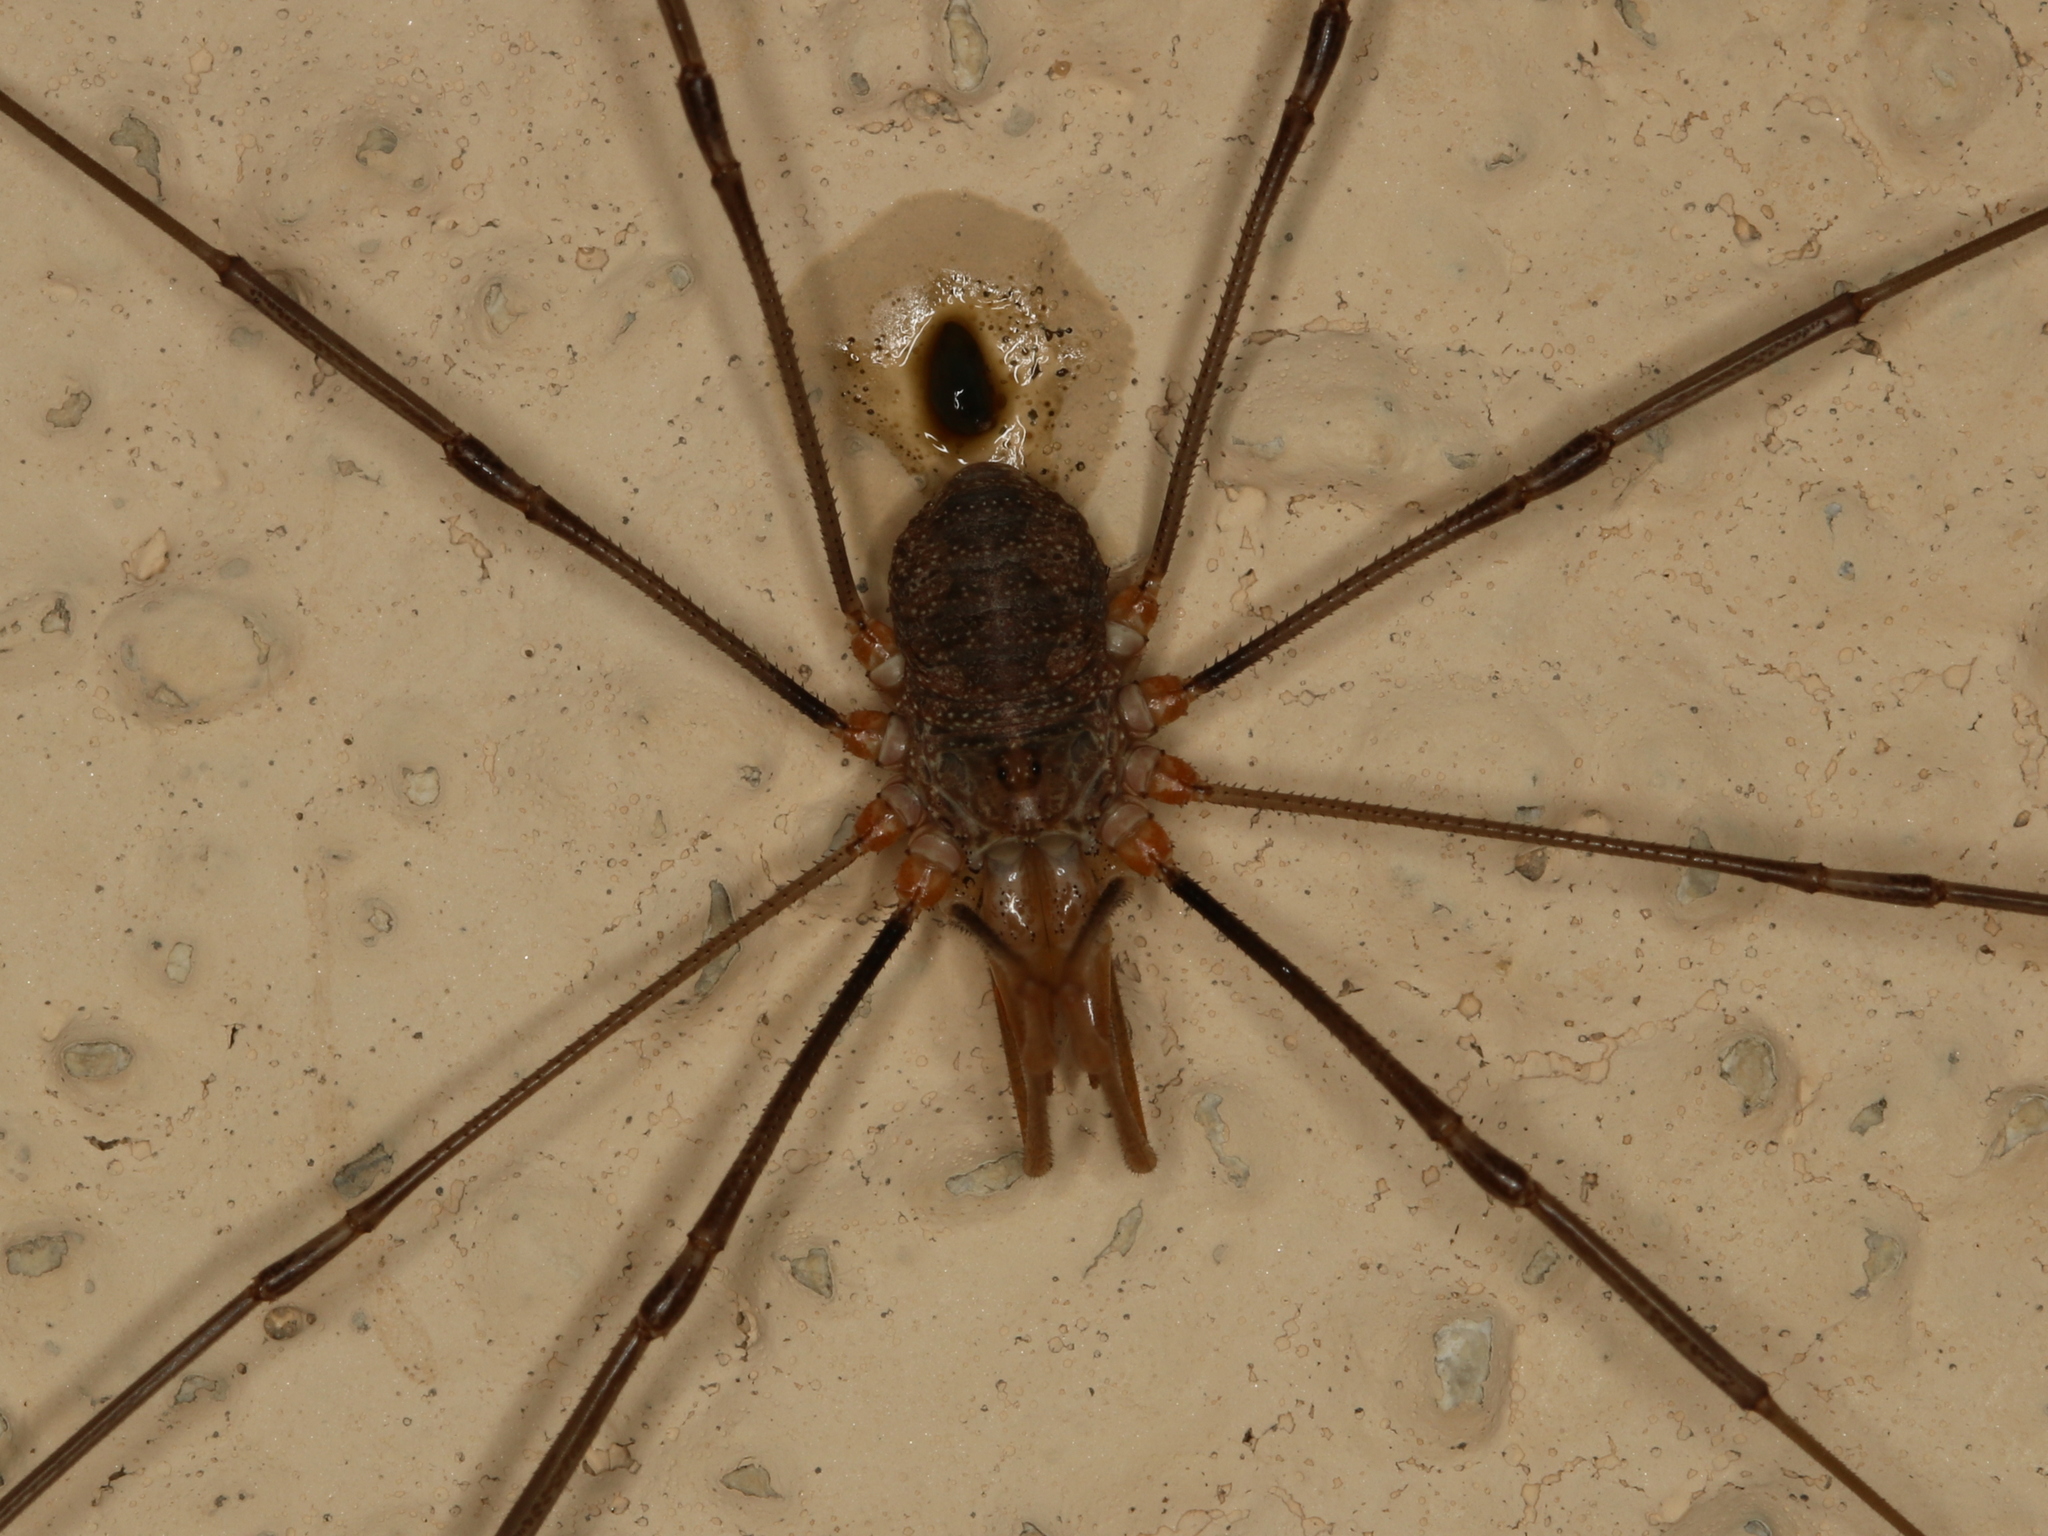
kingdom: Animalia
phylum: Arthropoda
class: Arachnida
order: Opiliones
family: Phalangiidae
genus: Phalangium
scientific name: Phalangium opilio
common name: Daddy longleg
